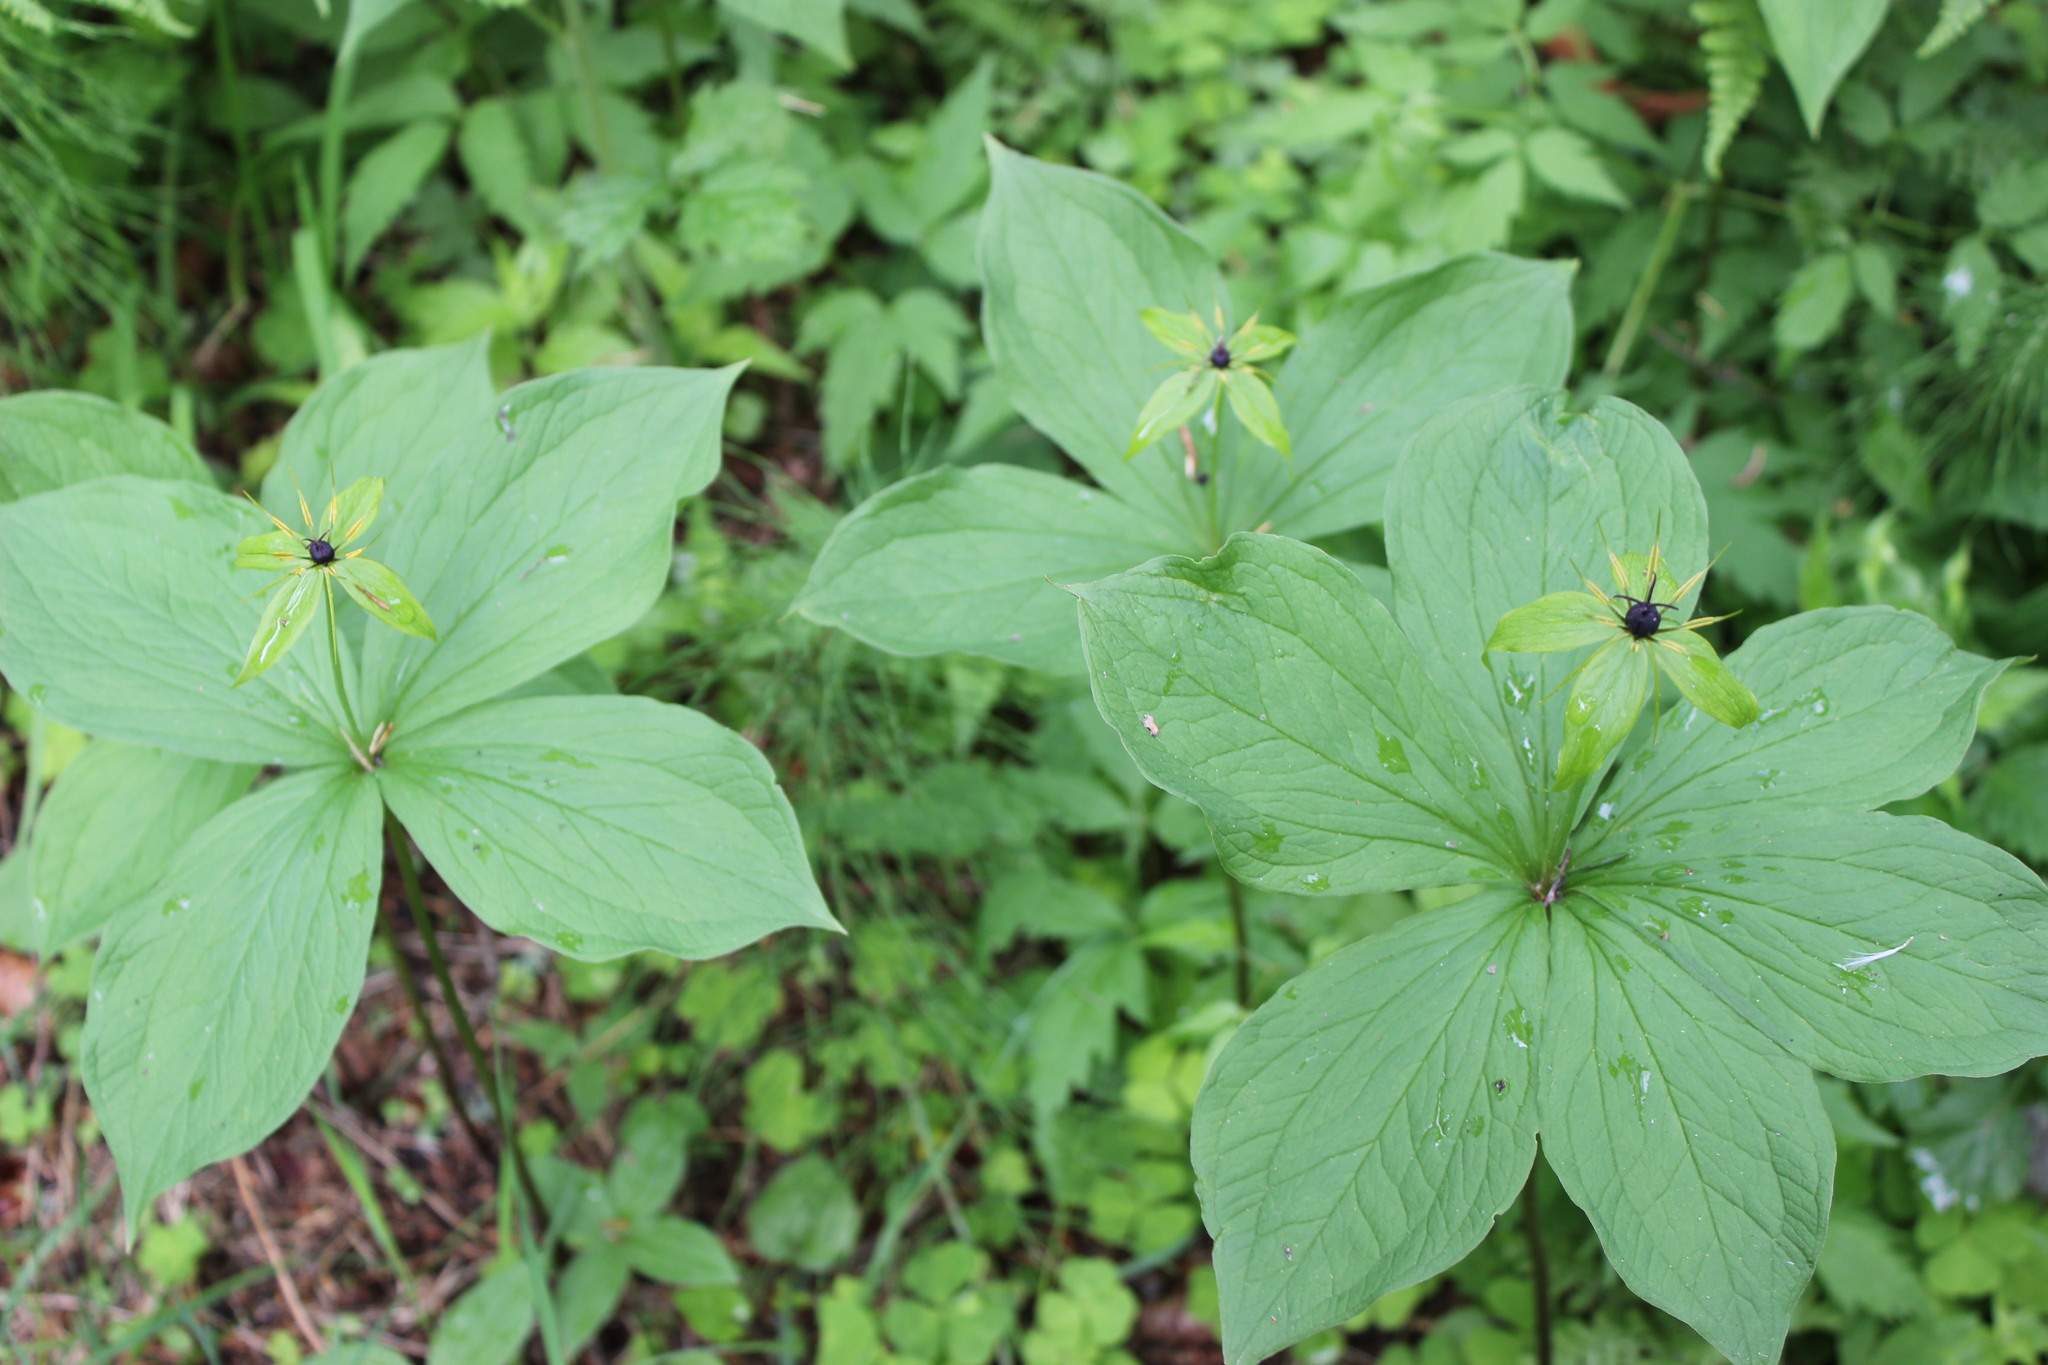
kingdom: Plantae
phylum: Tracheophyta
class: Liliopsida
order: Liliales
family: Melanthiaceae
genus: Paris
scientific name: Paris verticillata
